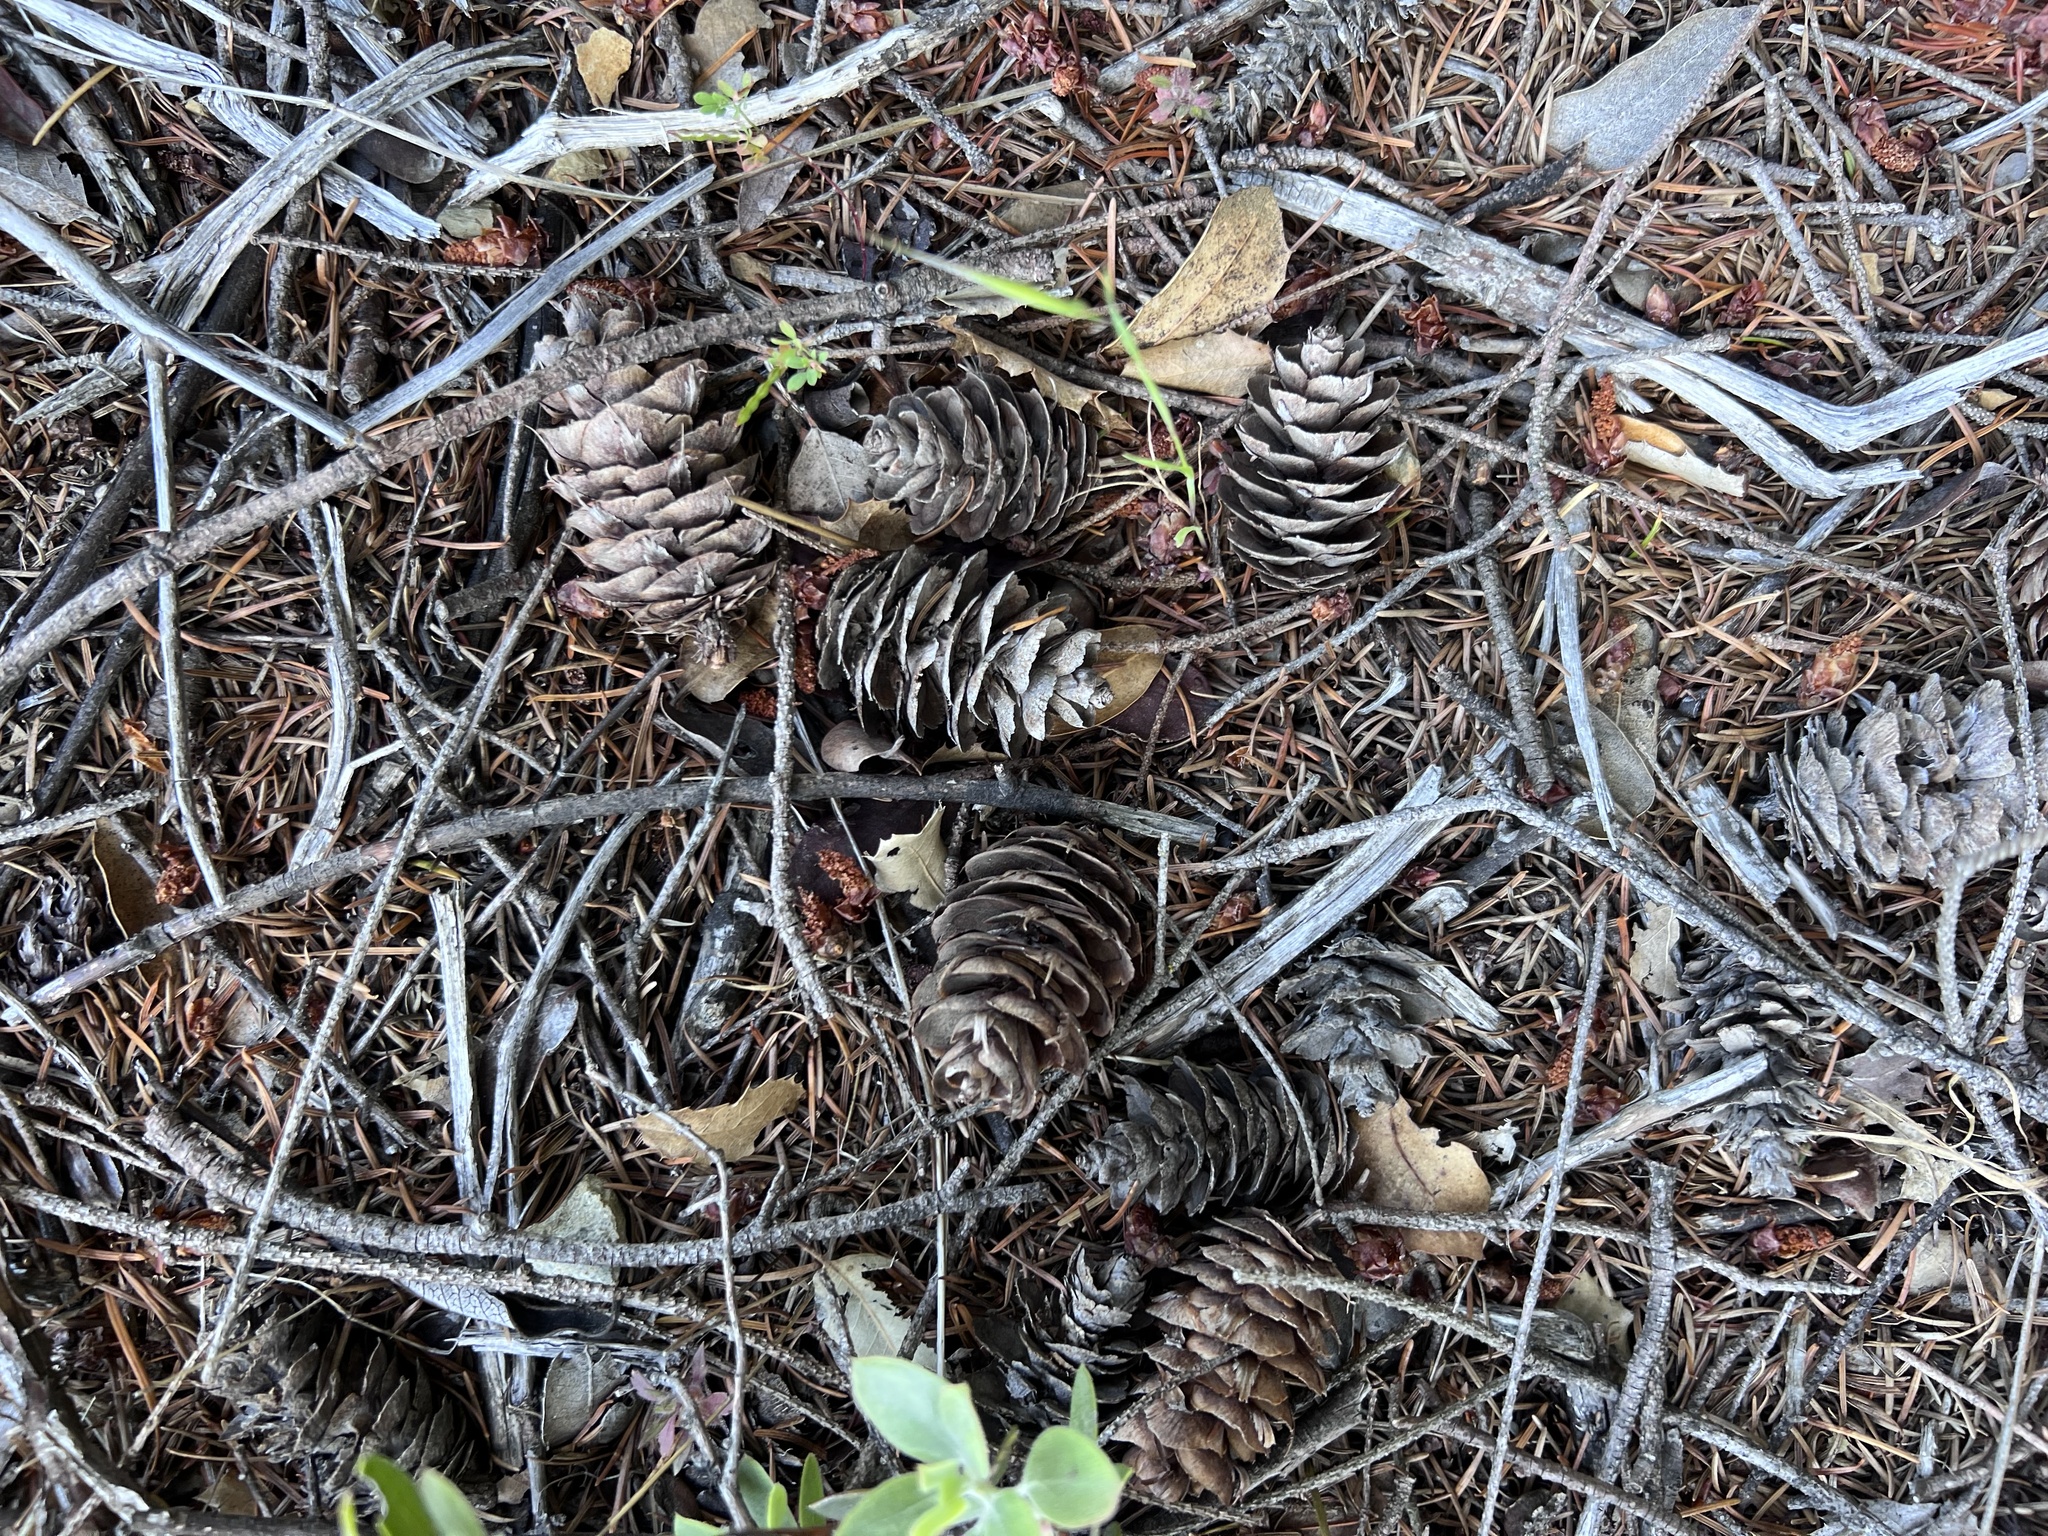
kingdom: Plantae
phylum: Tracheophyta
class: Pinopsida
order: Pinales
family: Pinaceae
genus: Pseudotsuga
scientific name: Pseudotsuga menziesii
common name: Douglas fir
